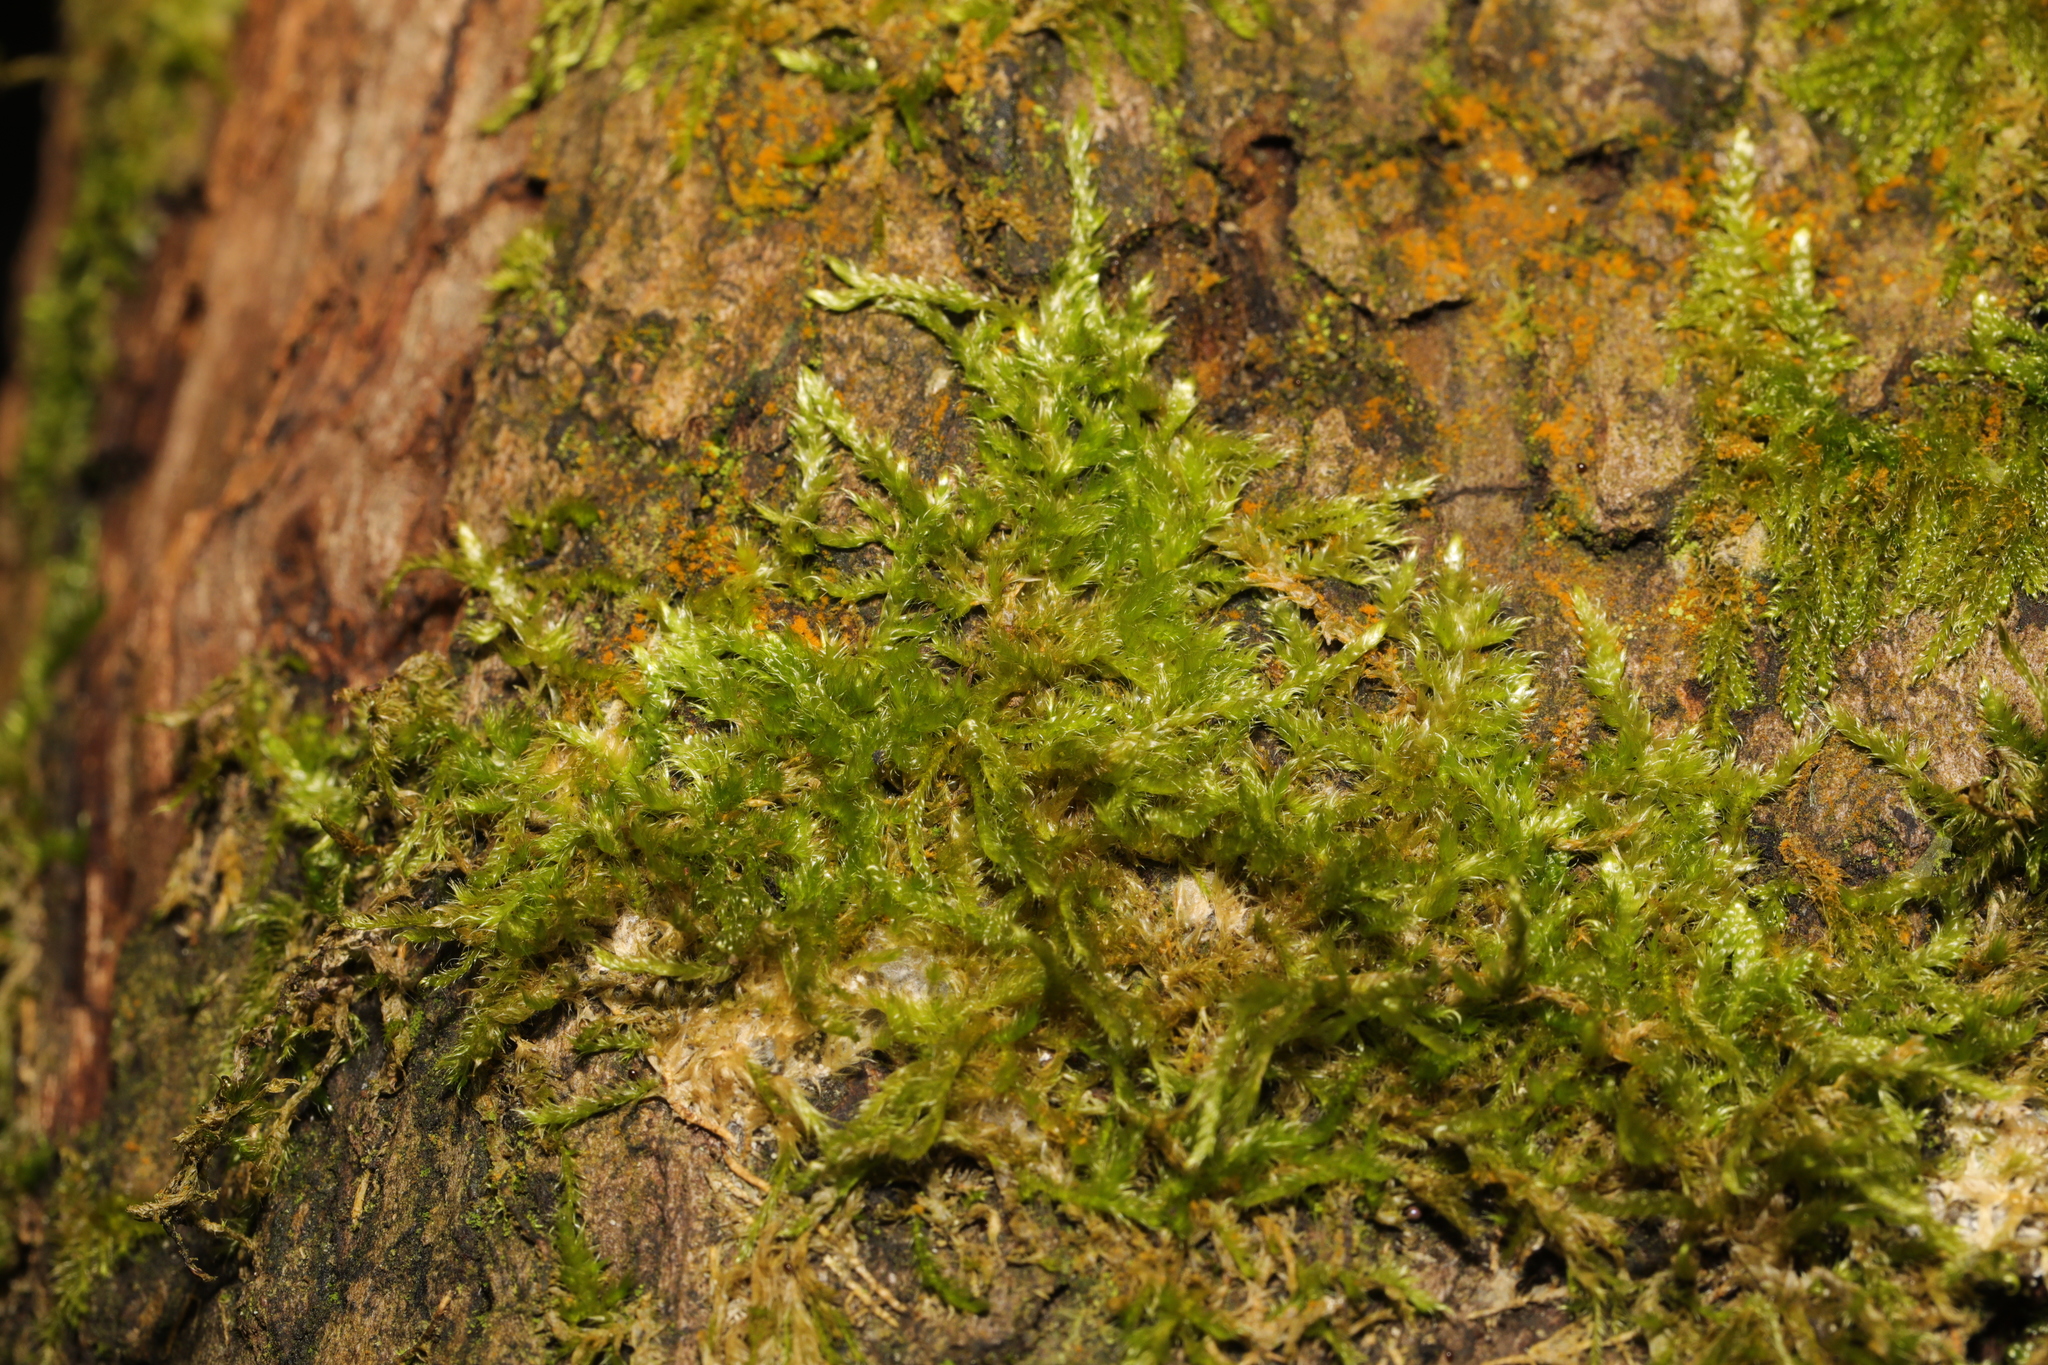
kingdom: Plantae
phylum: Bryophyta
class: Bryopsida
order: Hypnales
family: Hypnaceae
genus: Hypnum
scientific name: Hypnum resupinatum
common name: Supine plait-moss
